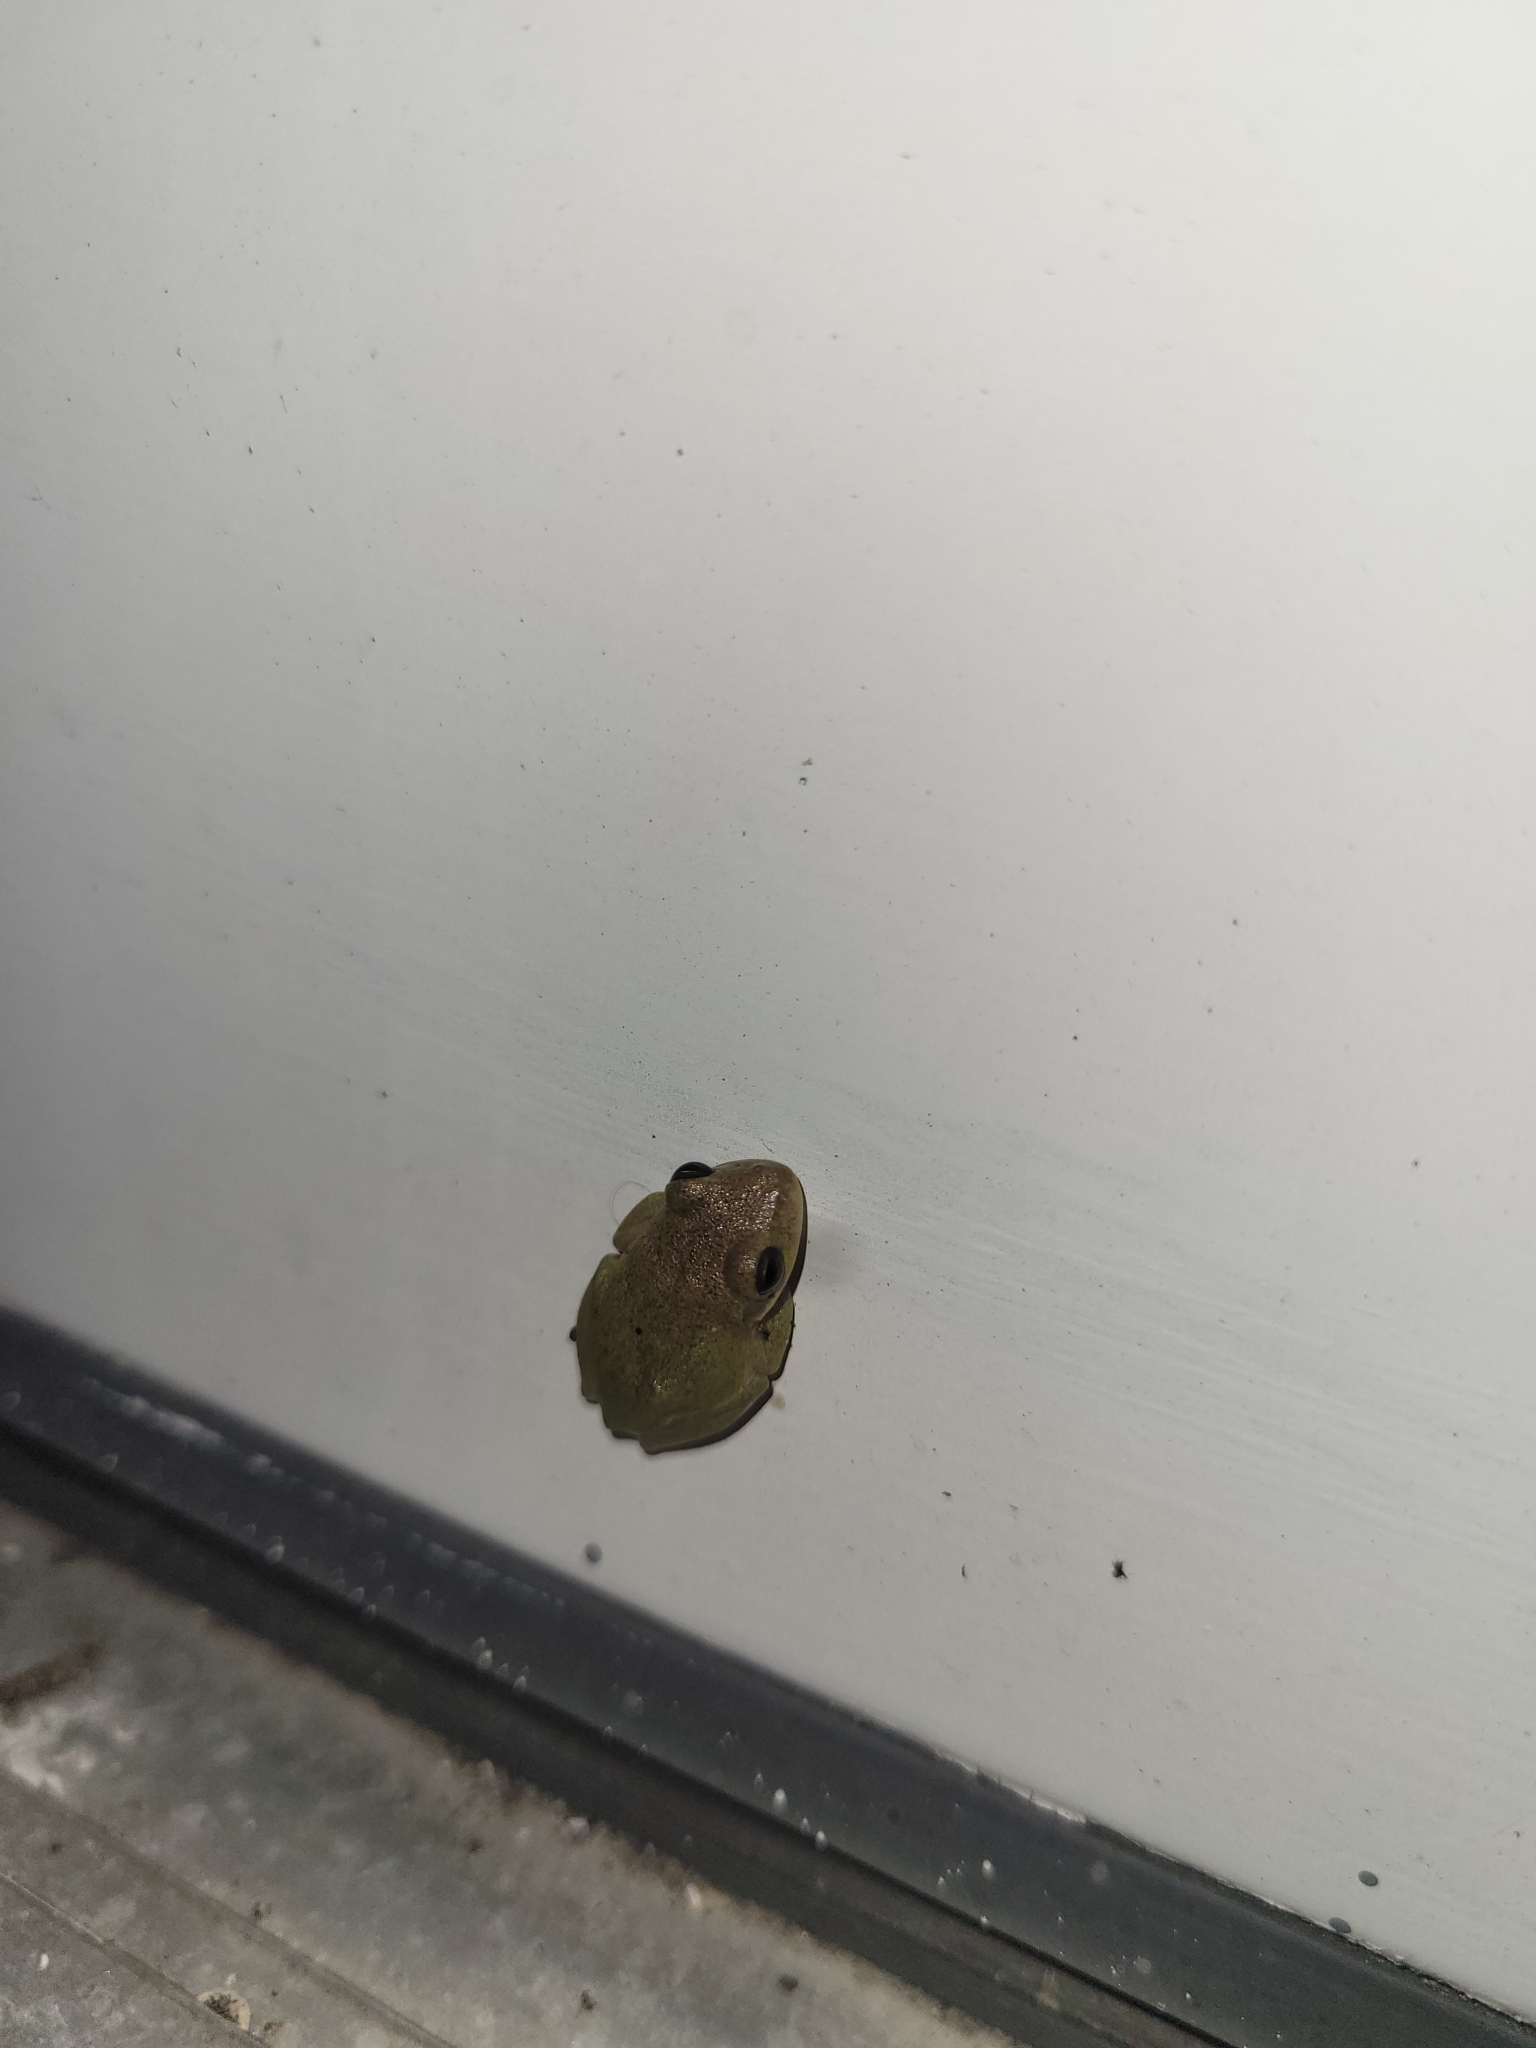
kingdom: Animalia
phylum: Chordata
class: Amphibia
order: Anura
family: Hylidae
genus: Dryophytes
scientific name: Dryophytes squirellus
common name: Squirrel treefrog
